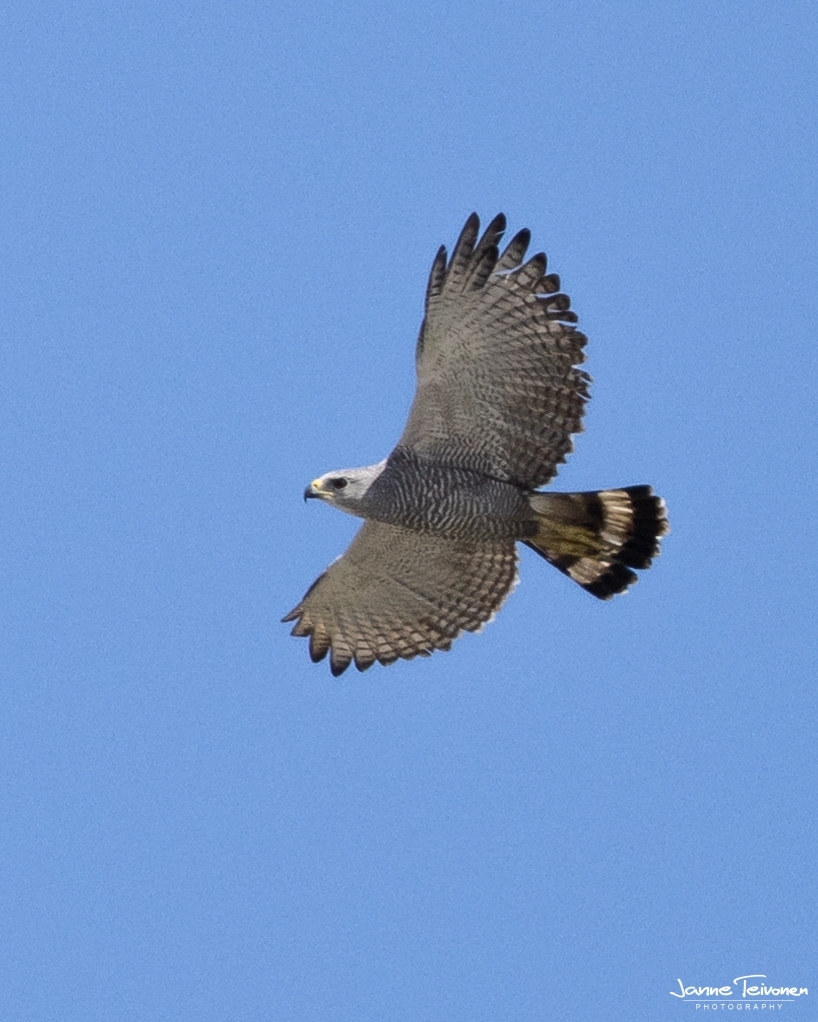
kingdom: Animalia
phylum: Chordata
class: Aves
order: Accipitriformes
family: Accipitridae
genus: Buteo
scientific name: Buteo nitidus
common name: Grey-lined hawk
